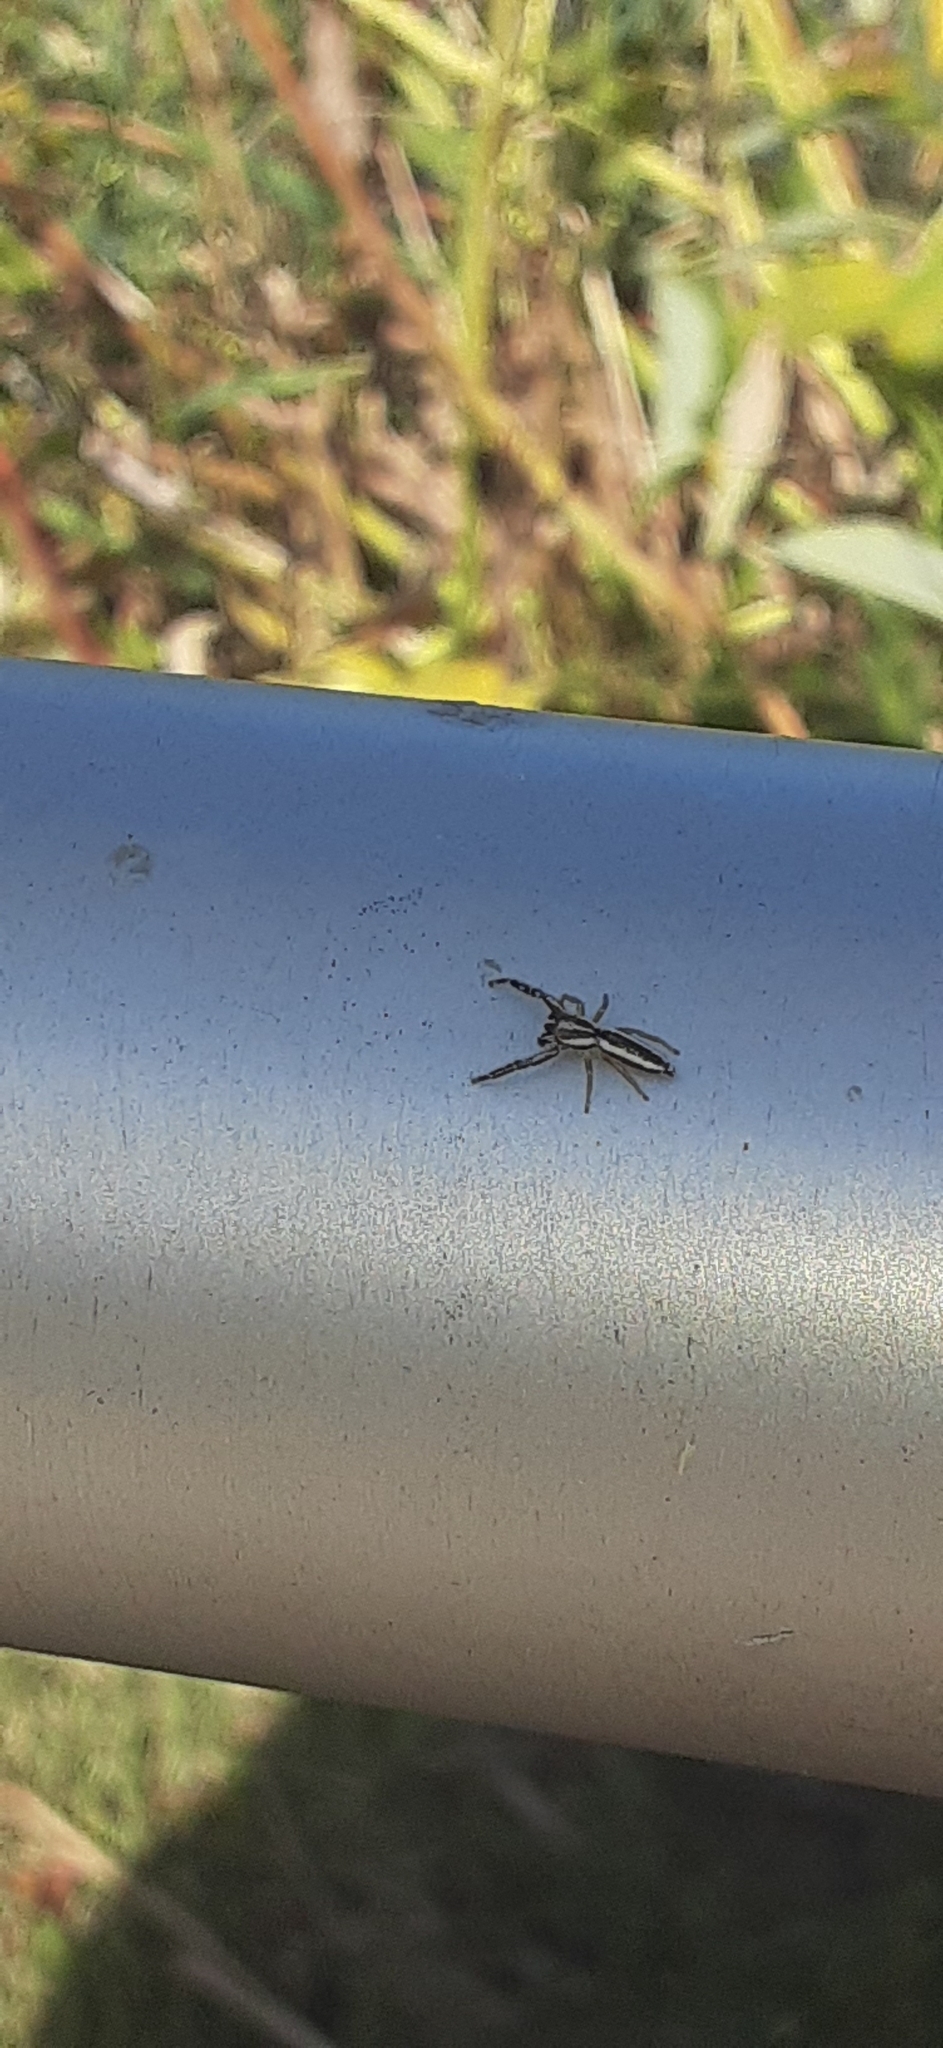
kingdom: Animalia
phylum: Arthropoda
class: Arachnida
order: Araneae
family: Salticidae
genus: Hentzia
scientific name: Hentzia grenada
